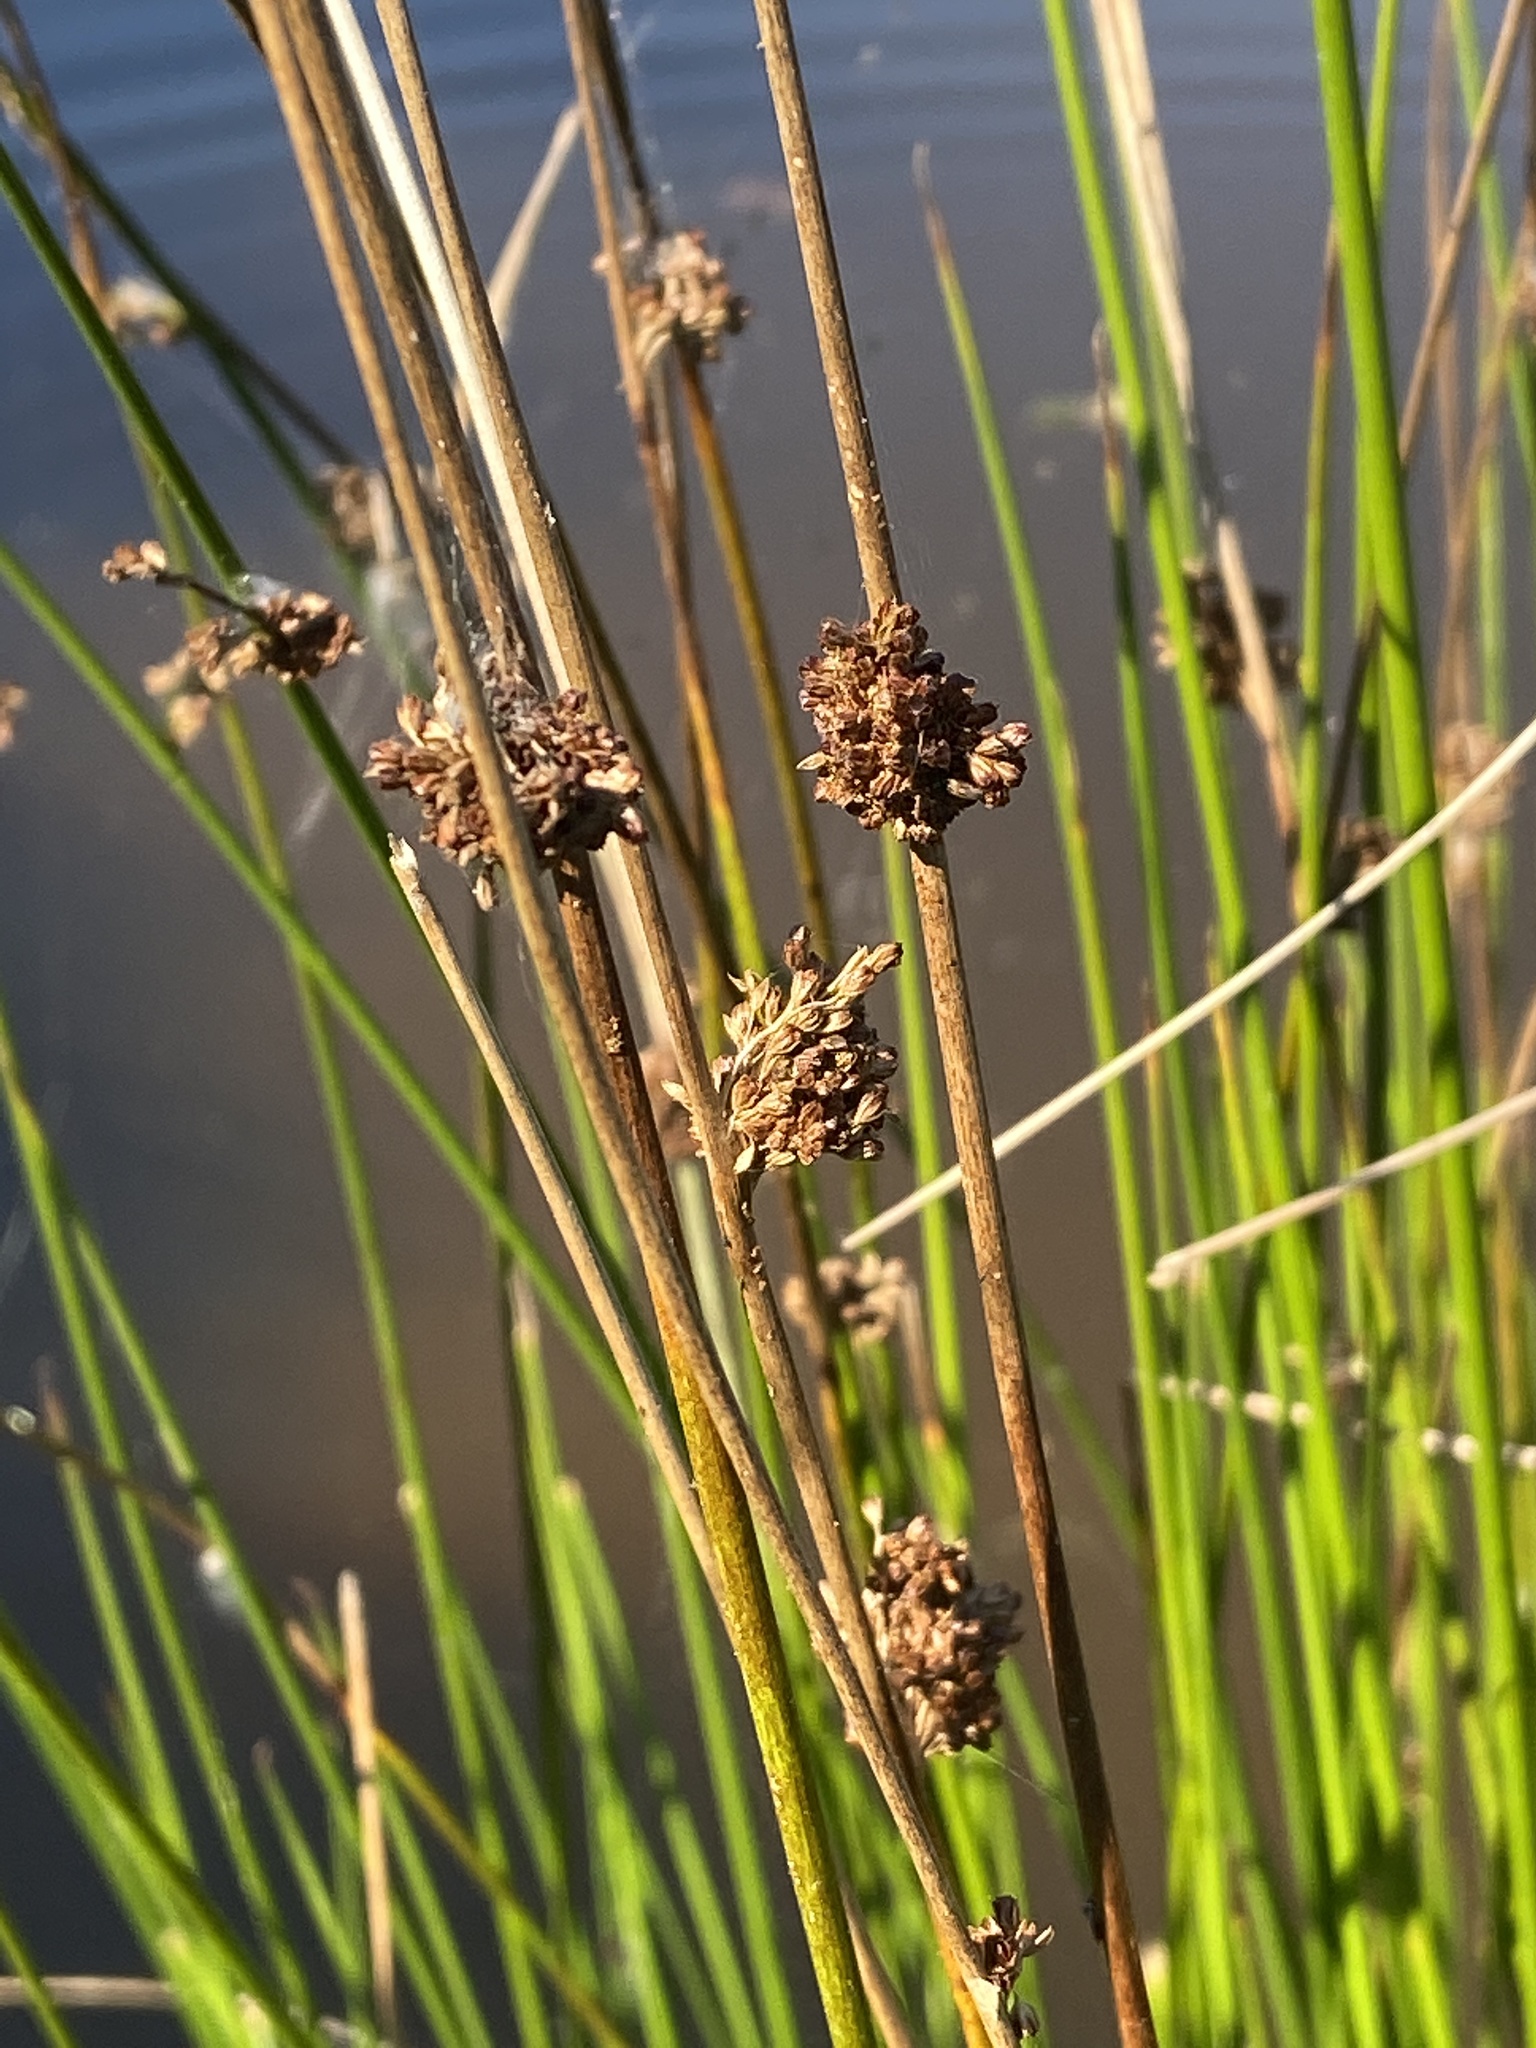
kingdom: Plantae
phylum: Tracheophyta
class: Liliopsida
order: Poales
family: Juncaceae
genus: Juncus
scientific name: Juncus effusus
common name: Soft rush
